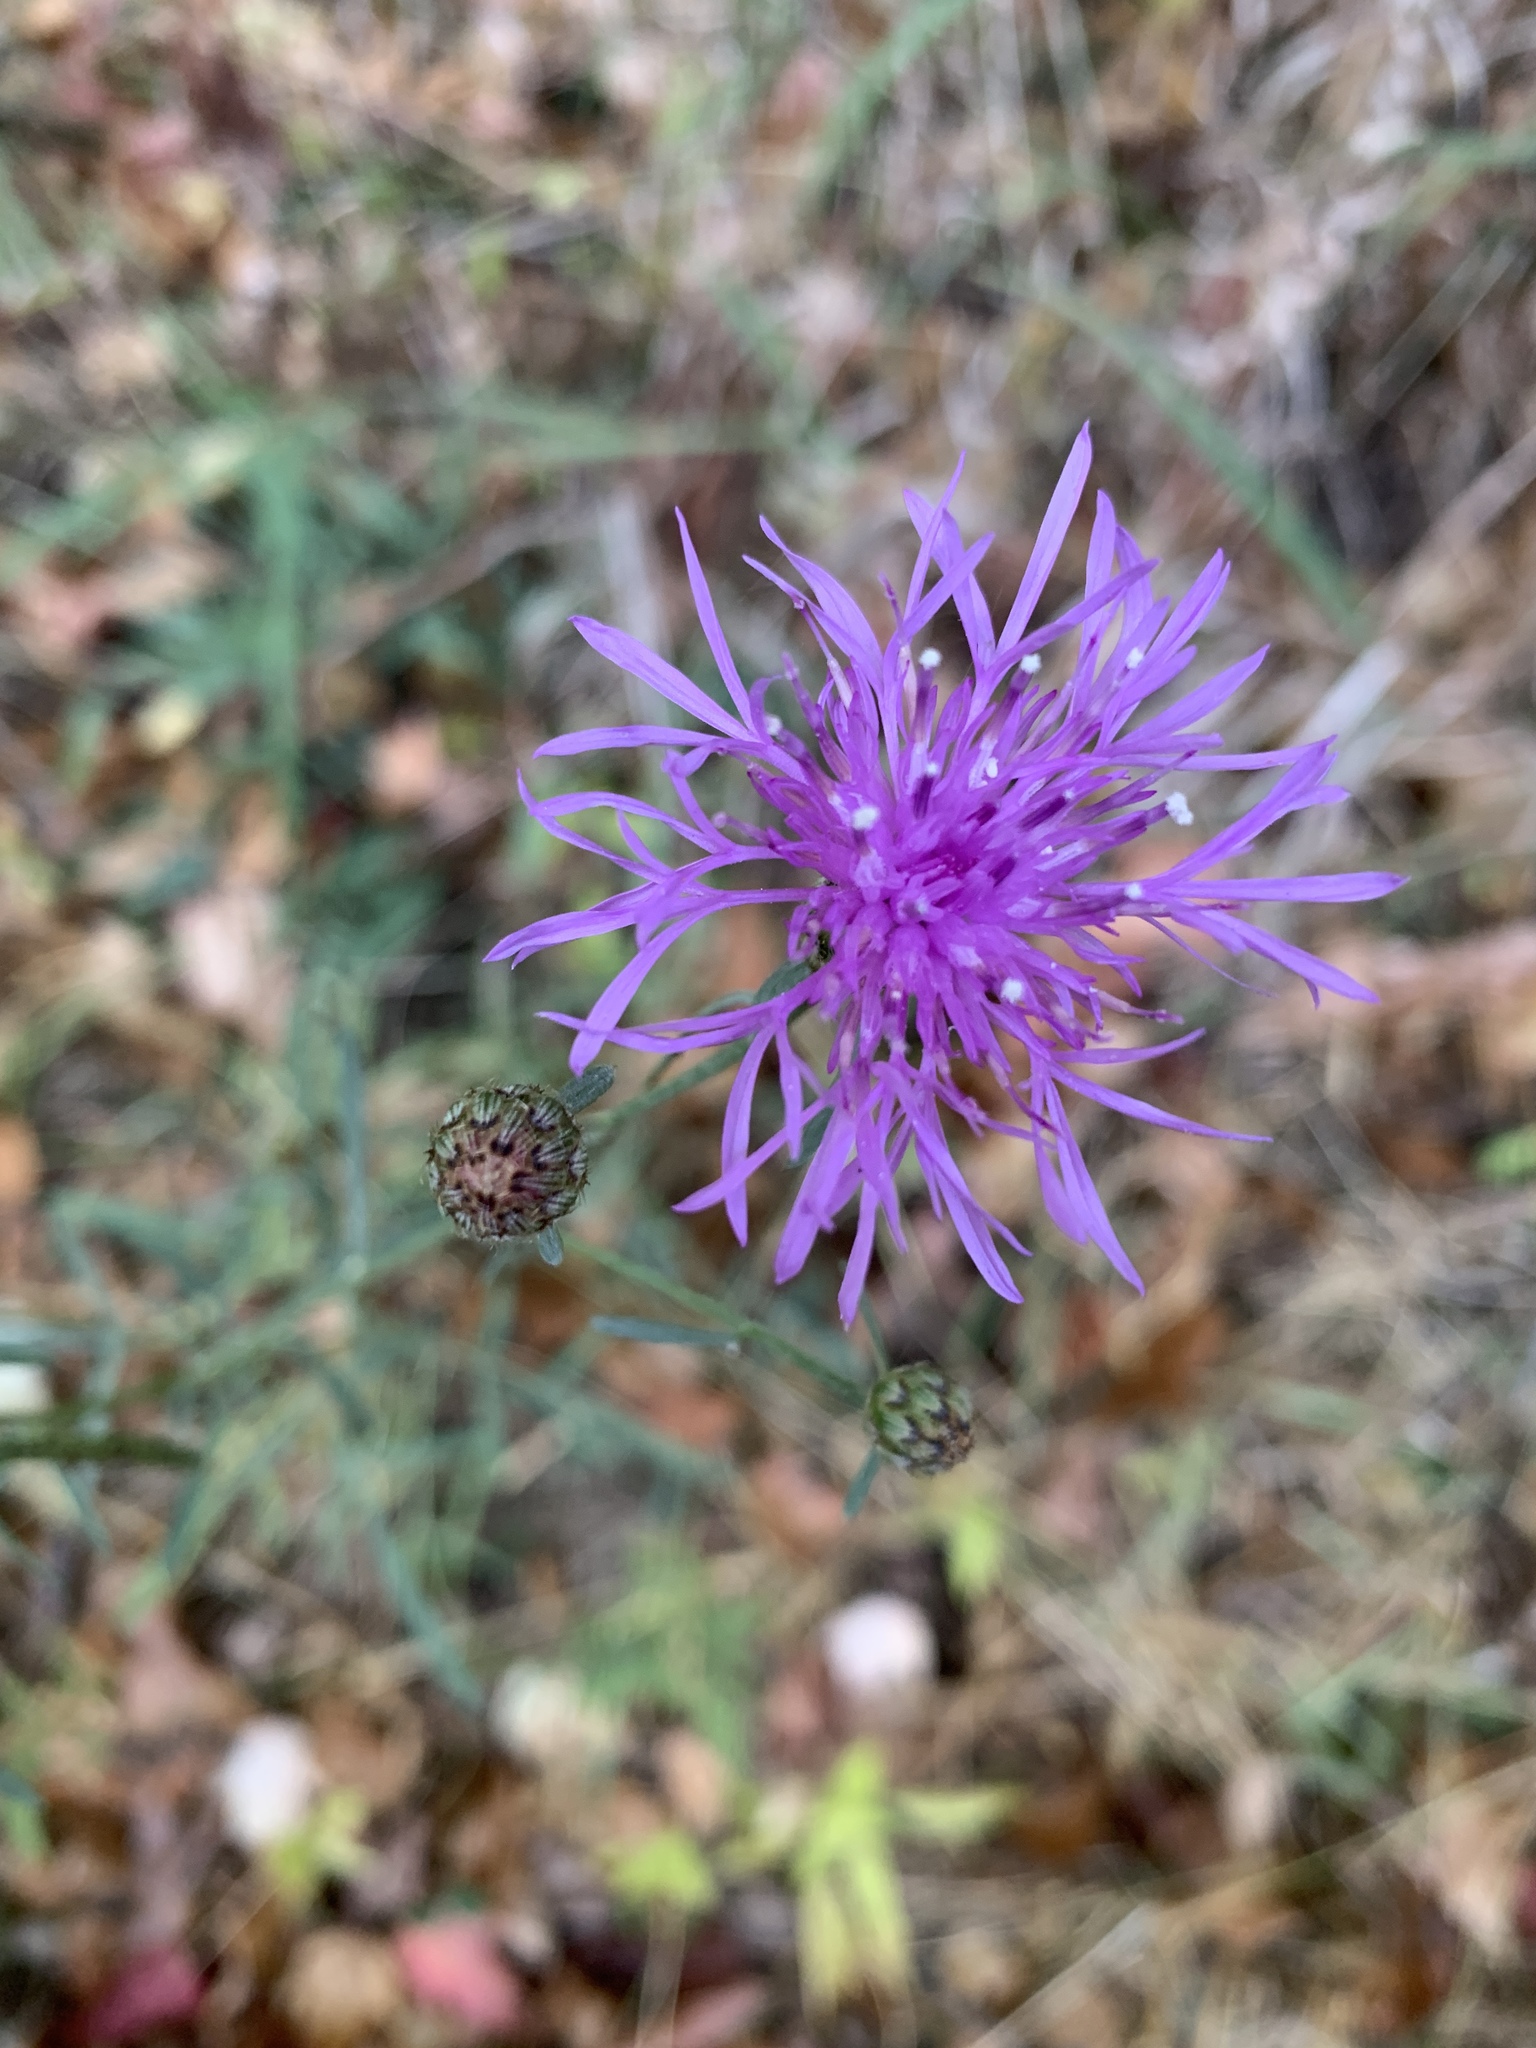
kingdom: Plantae
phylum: Tracheophyta
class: Magnoliopsida
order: Asterales
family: Asteraceae
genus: Centaurea
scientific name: Centaurea stoebe
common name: Spotted knapweed
